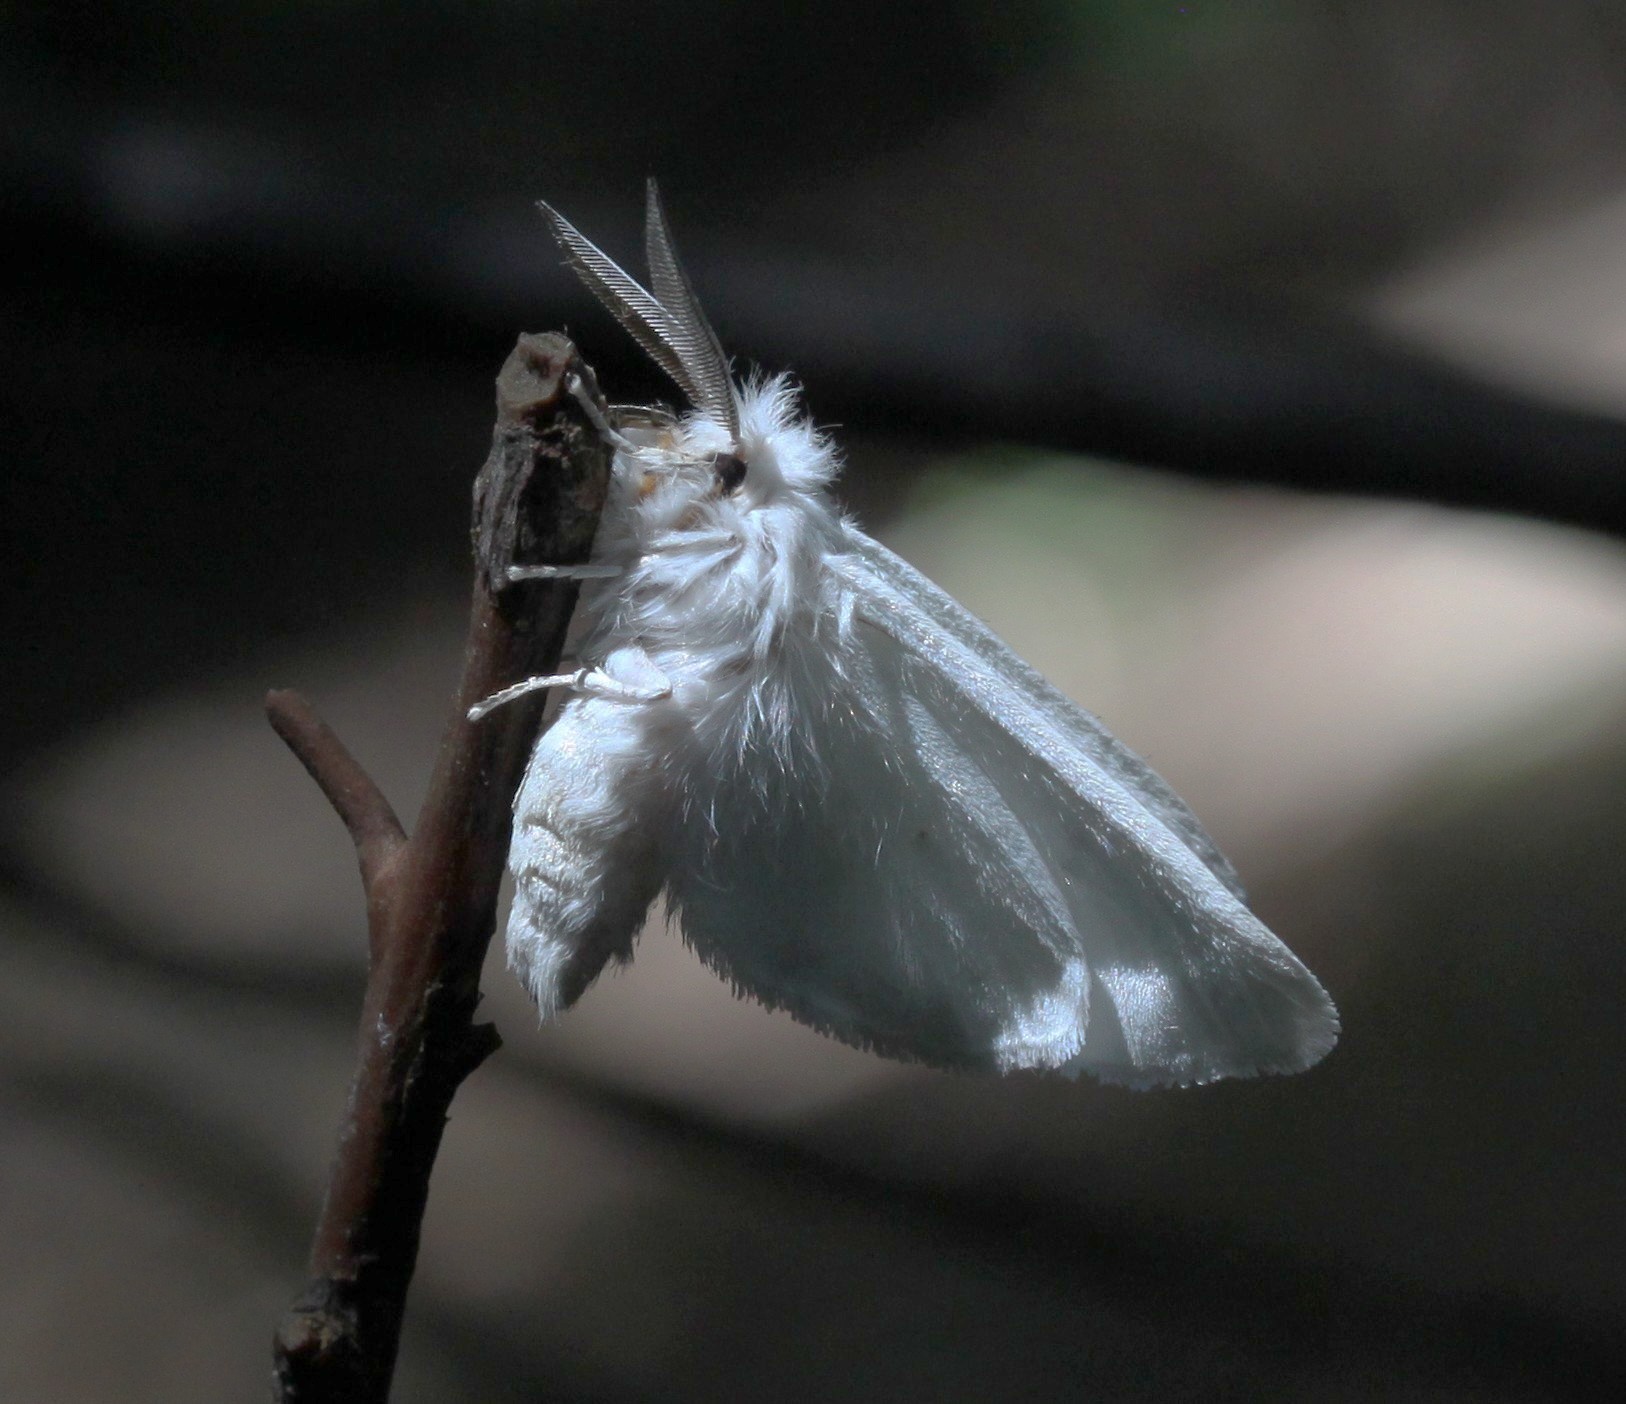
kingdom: Animalia
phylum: Arthropoda
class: Insecta
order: Lepidoptera
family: Erebidae
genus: Spilosoma
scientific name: Spilosoma congrua
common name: Agreeable tiger moth
